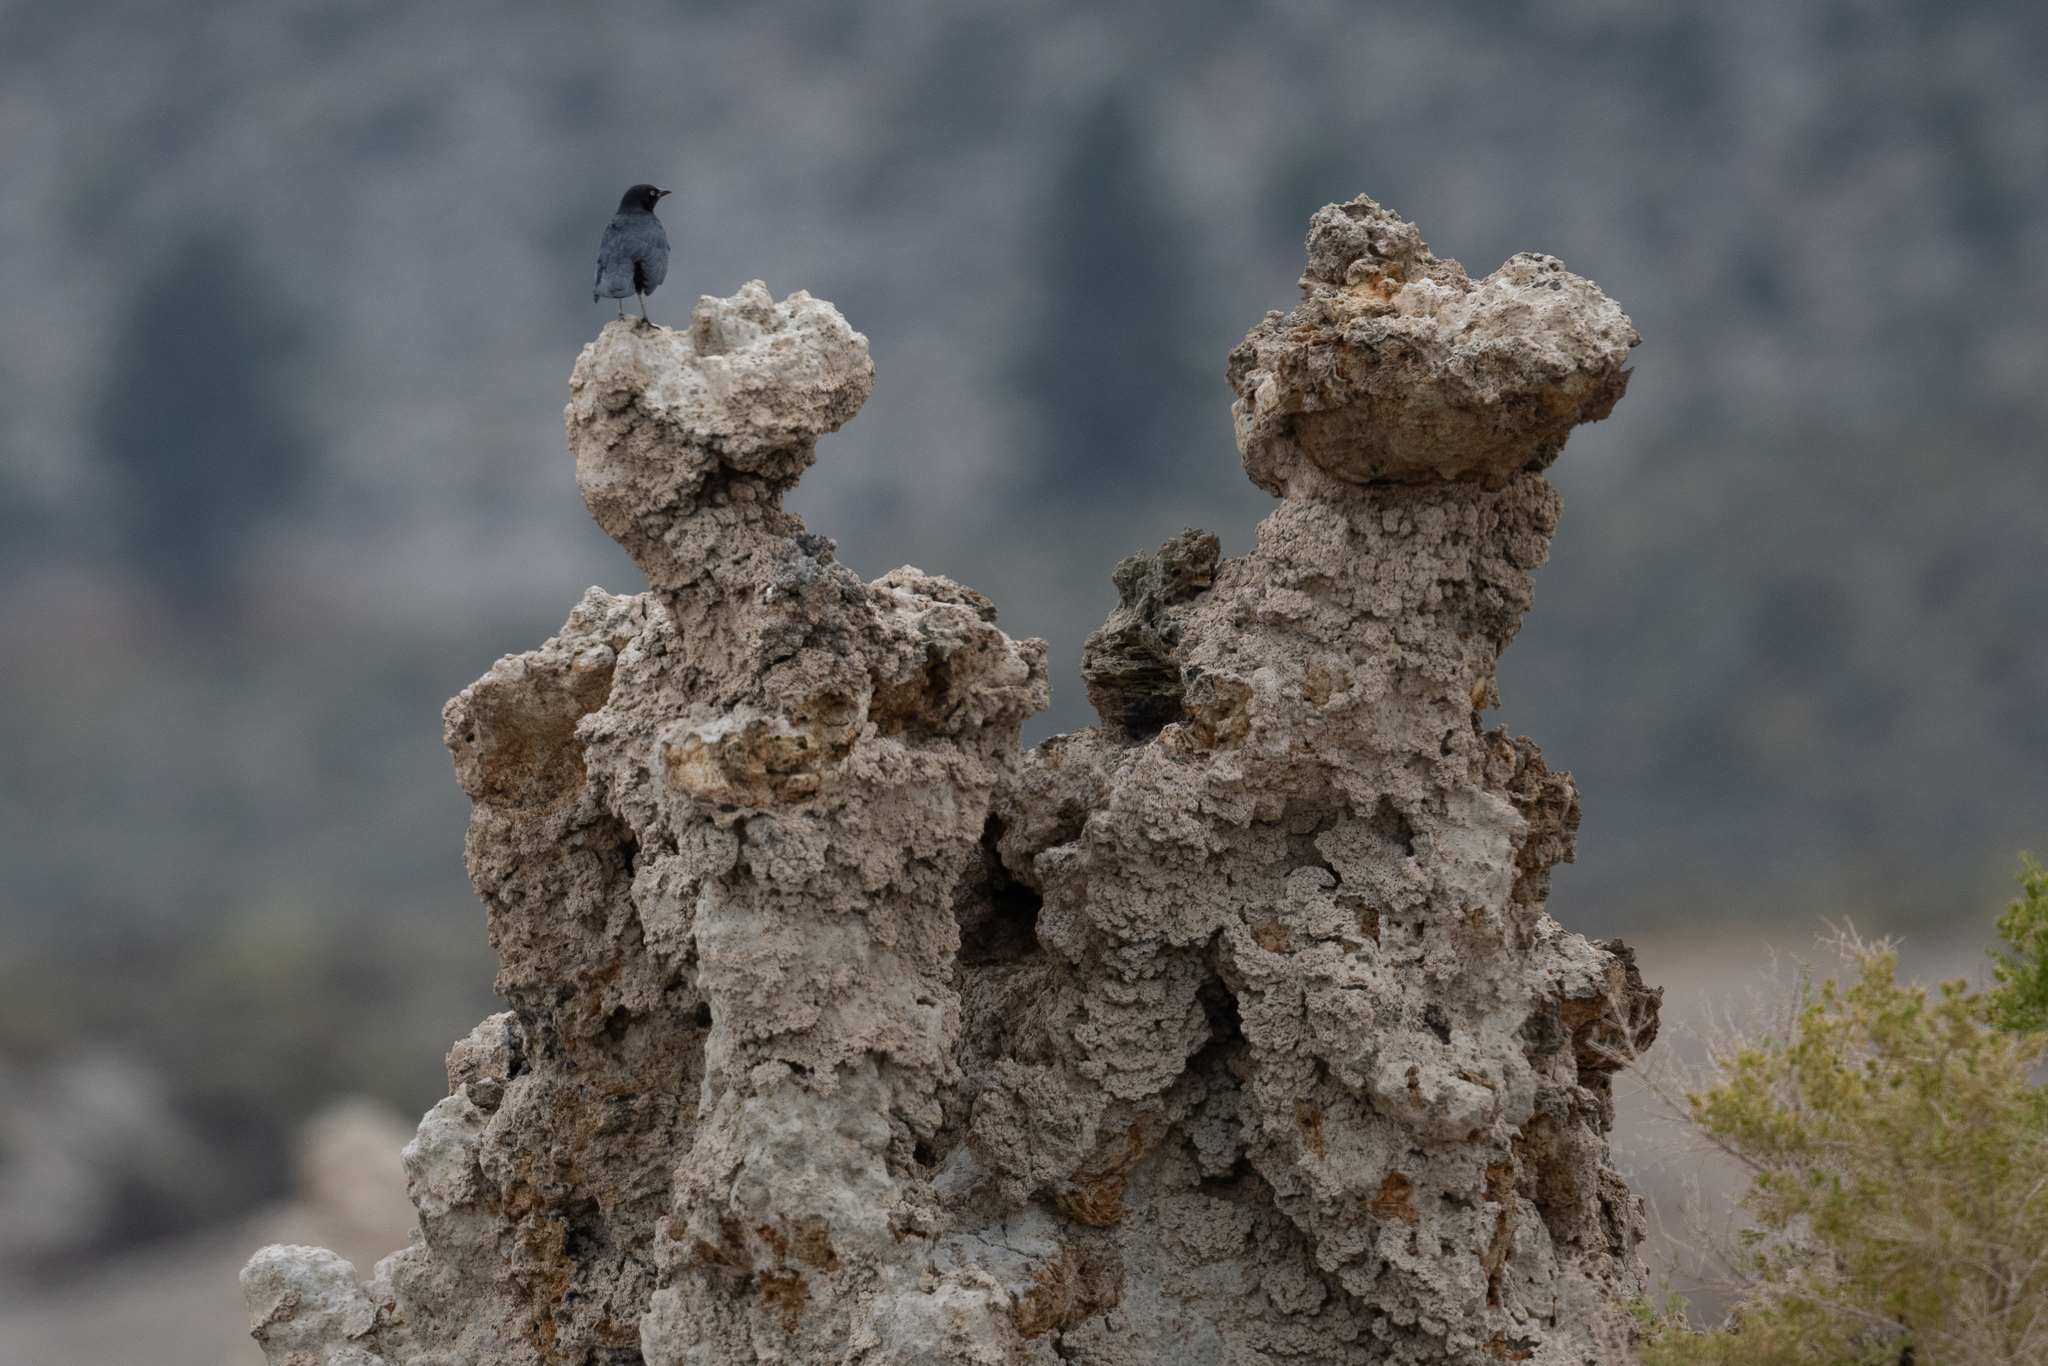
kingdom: Animalia
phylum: Chordata
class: Aves
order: Passeriformes
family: Icteridae
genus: Euphagus
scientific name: Euphagus cyanocephalus
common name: Brewer's blackbird
